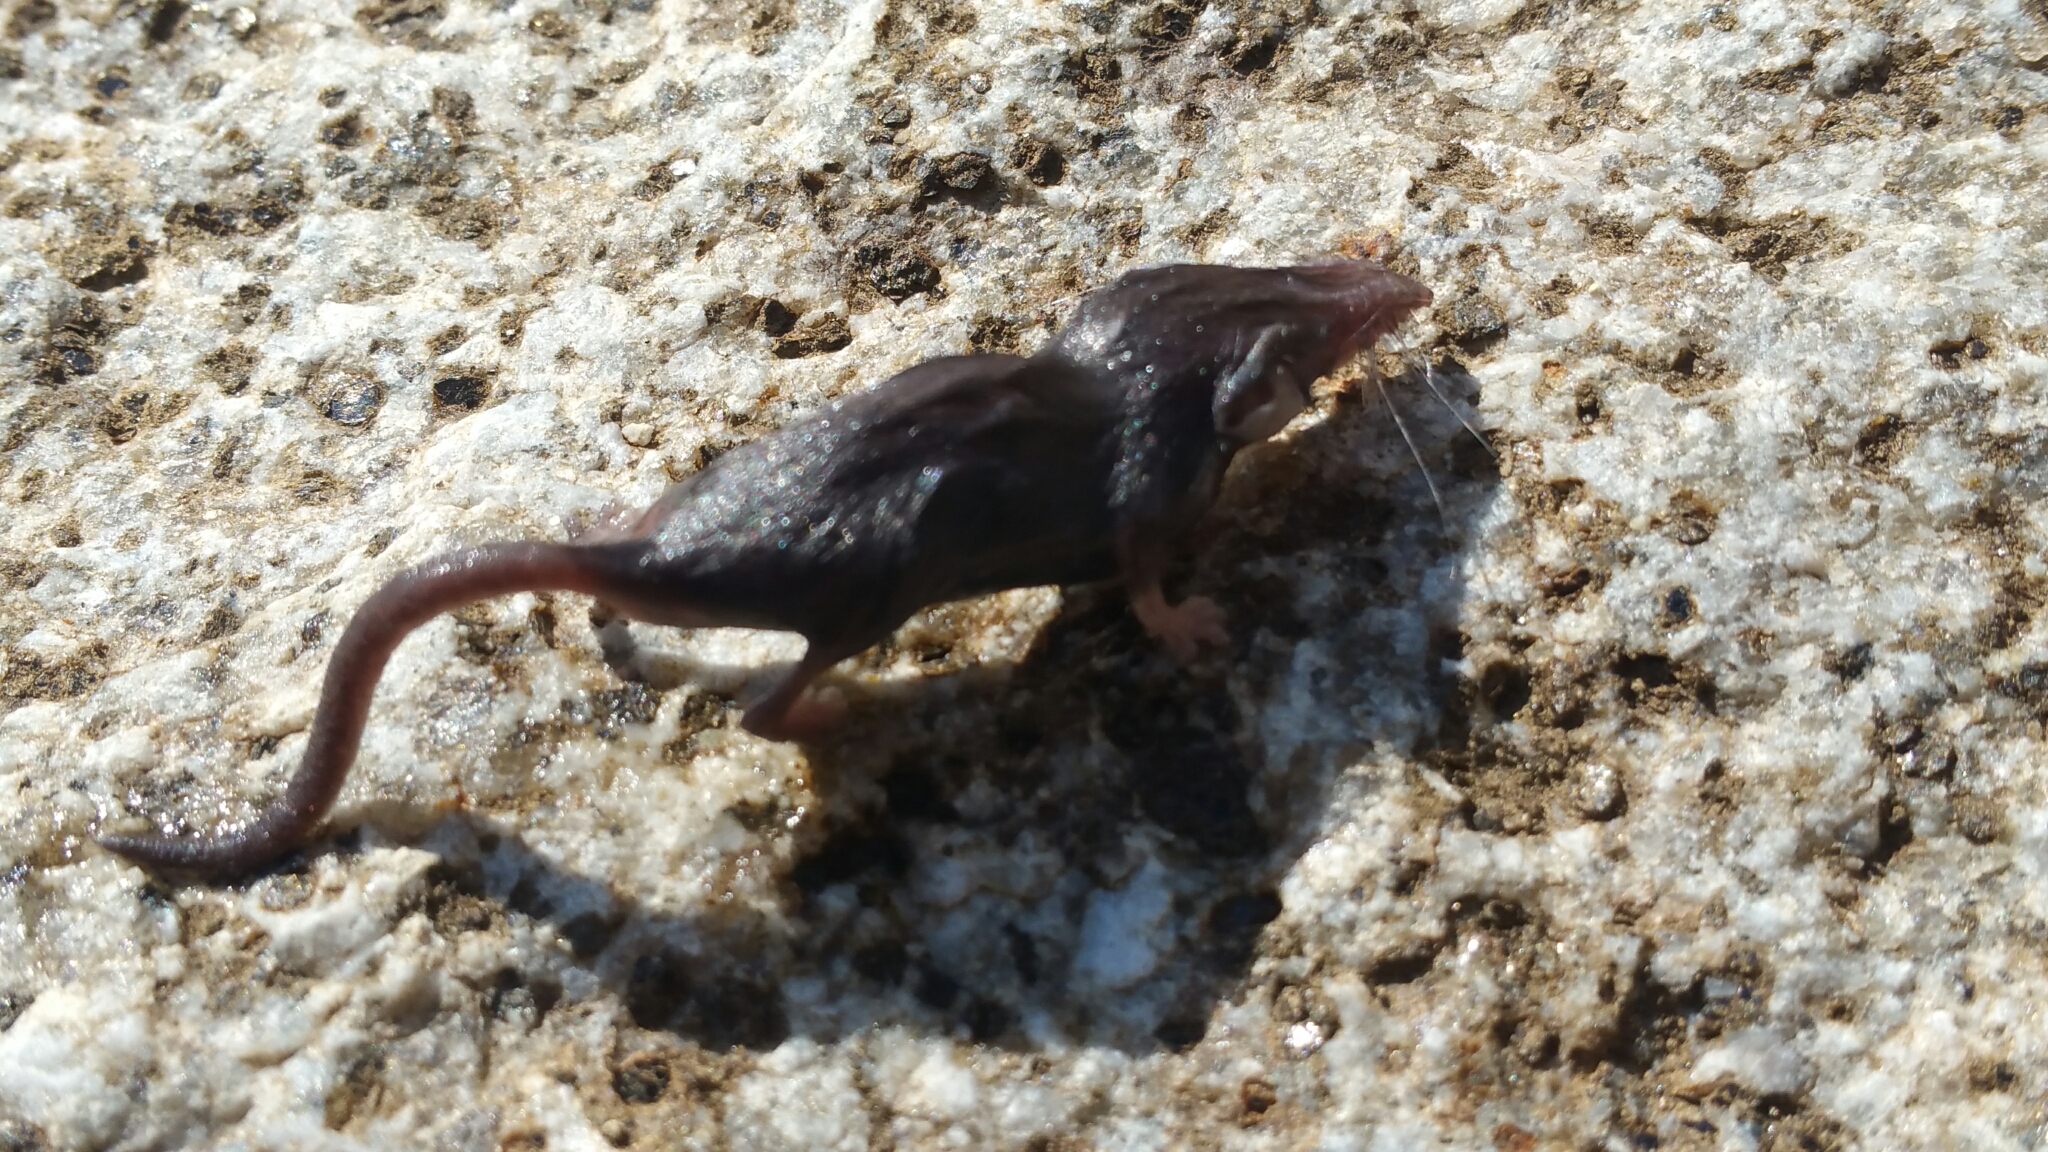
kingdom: Animalia
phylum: Chordata
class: Mammalia
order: Soricomorpha
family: Soricidae
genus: Suncus
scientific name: Suncus etruscus
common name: Etruscan shrew
